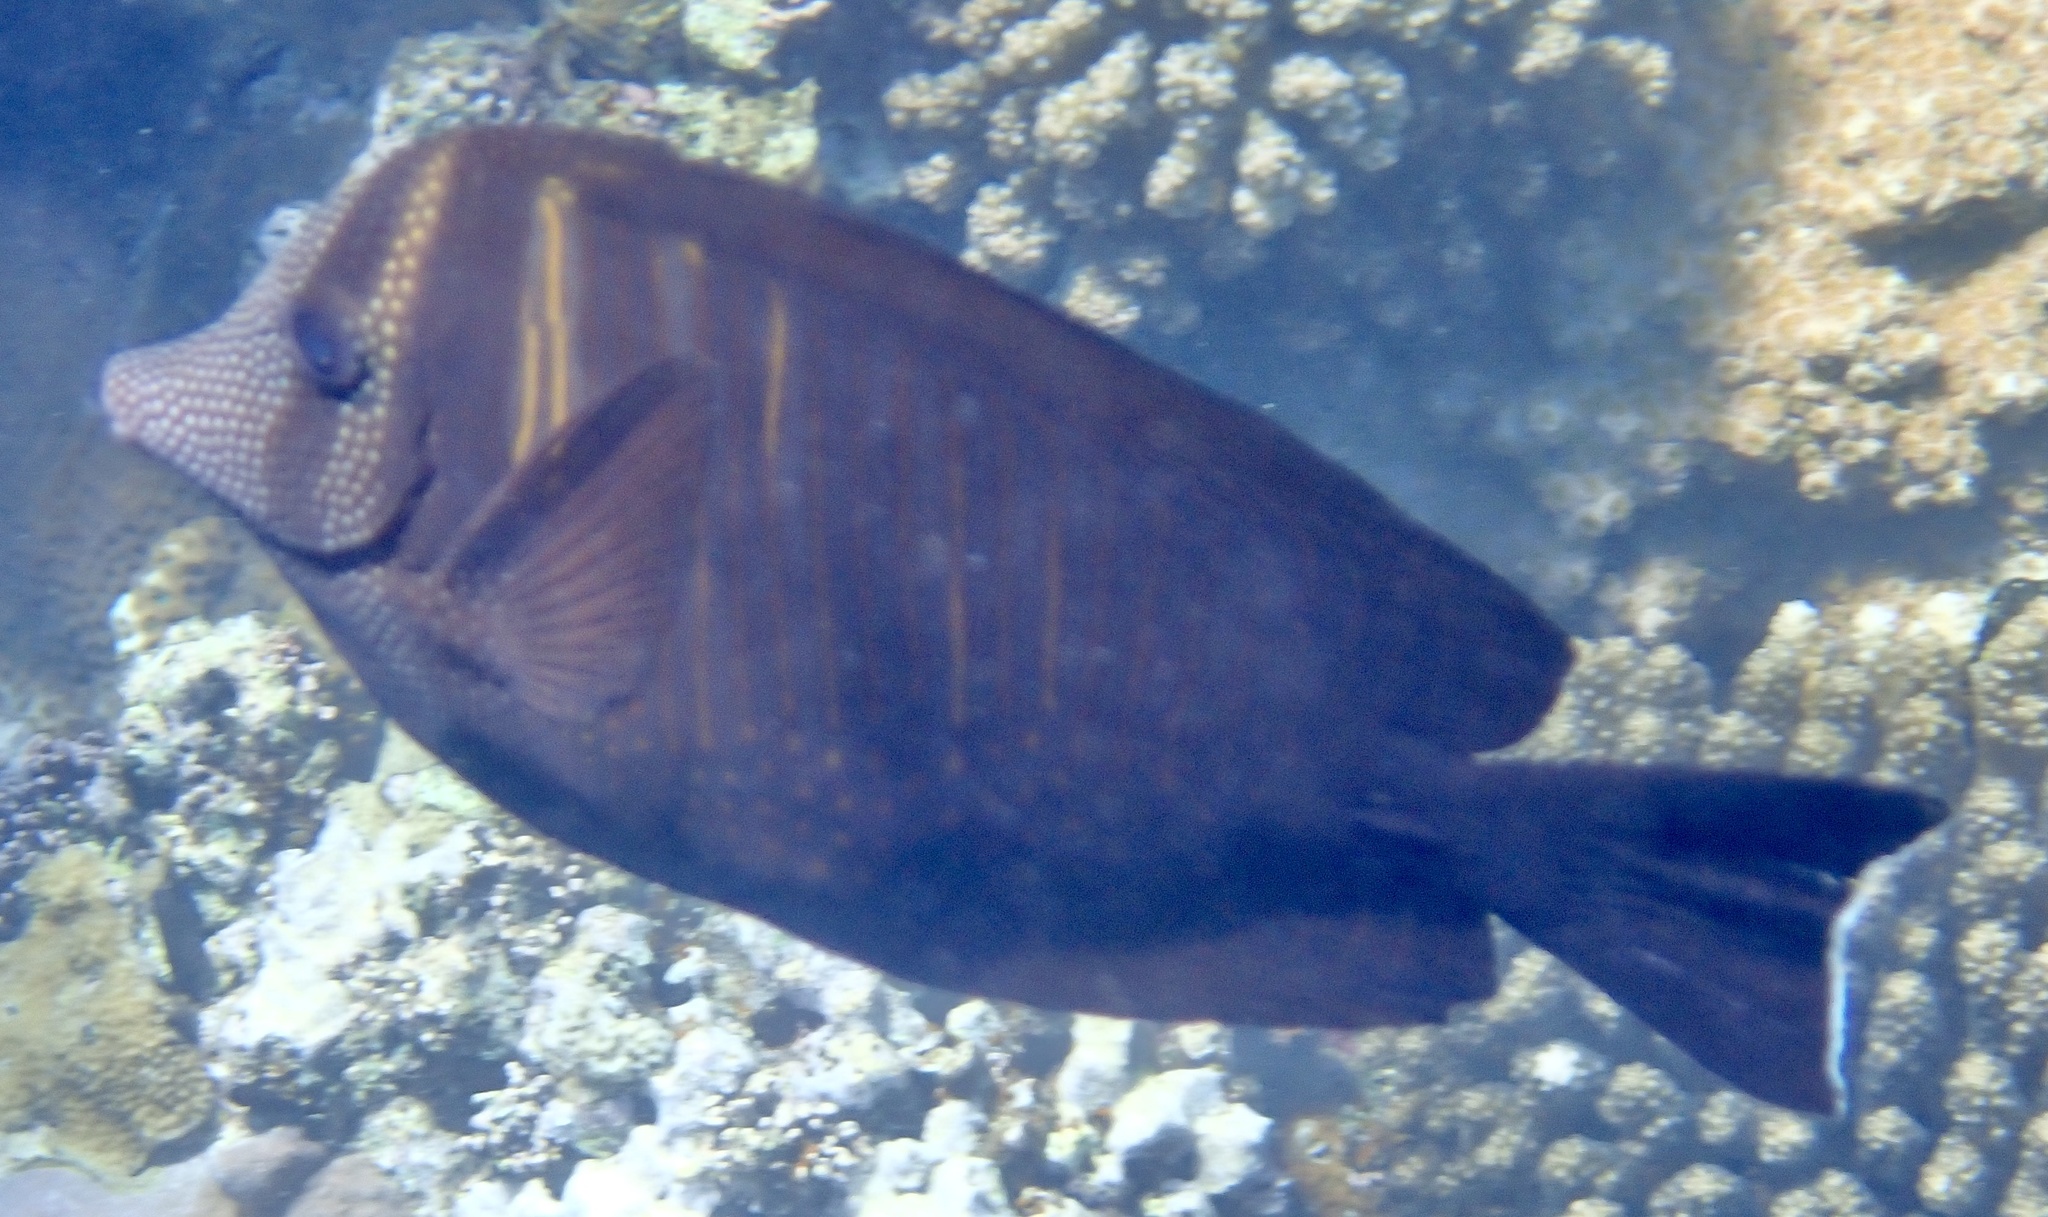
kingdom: Animalia
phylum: Chordata
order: Perciformes
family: Acanthuridae
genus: Zebrasoma
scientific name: Zebrasoma desjardinii
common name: Desjardin's sailfin tang
